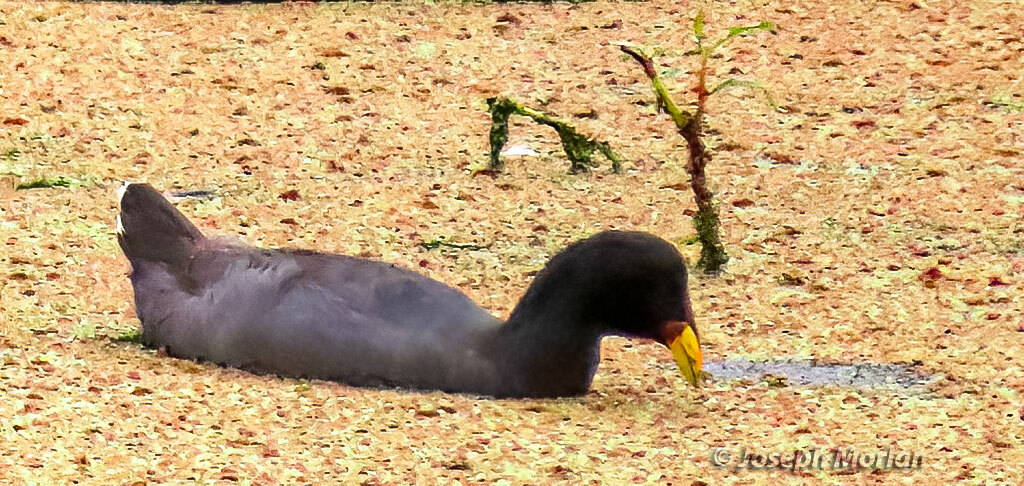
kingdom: Animalia
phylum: Chordata
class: Aves
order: Gruiformes
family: Rallidae
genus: Fulica
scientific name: Fulica rufifrons
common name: Red-fronted coot
